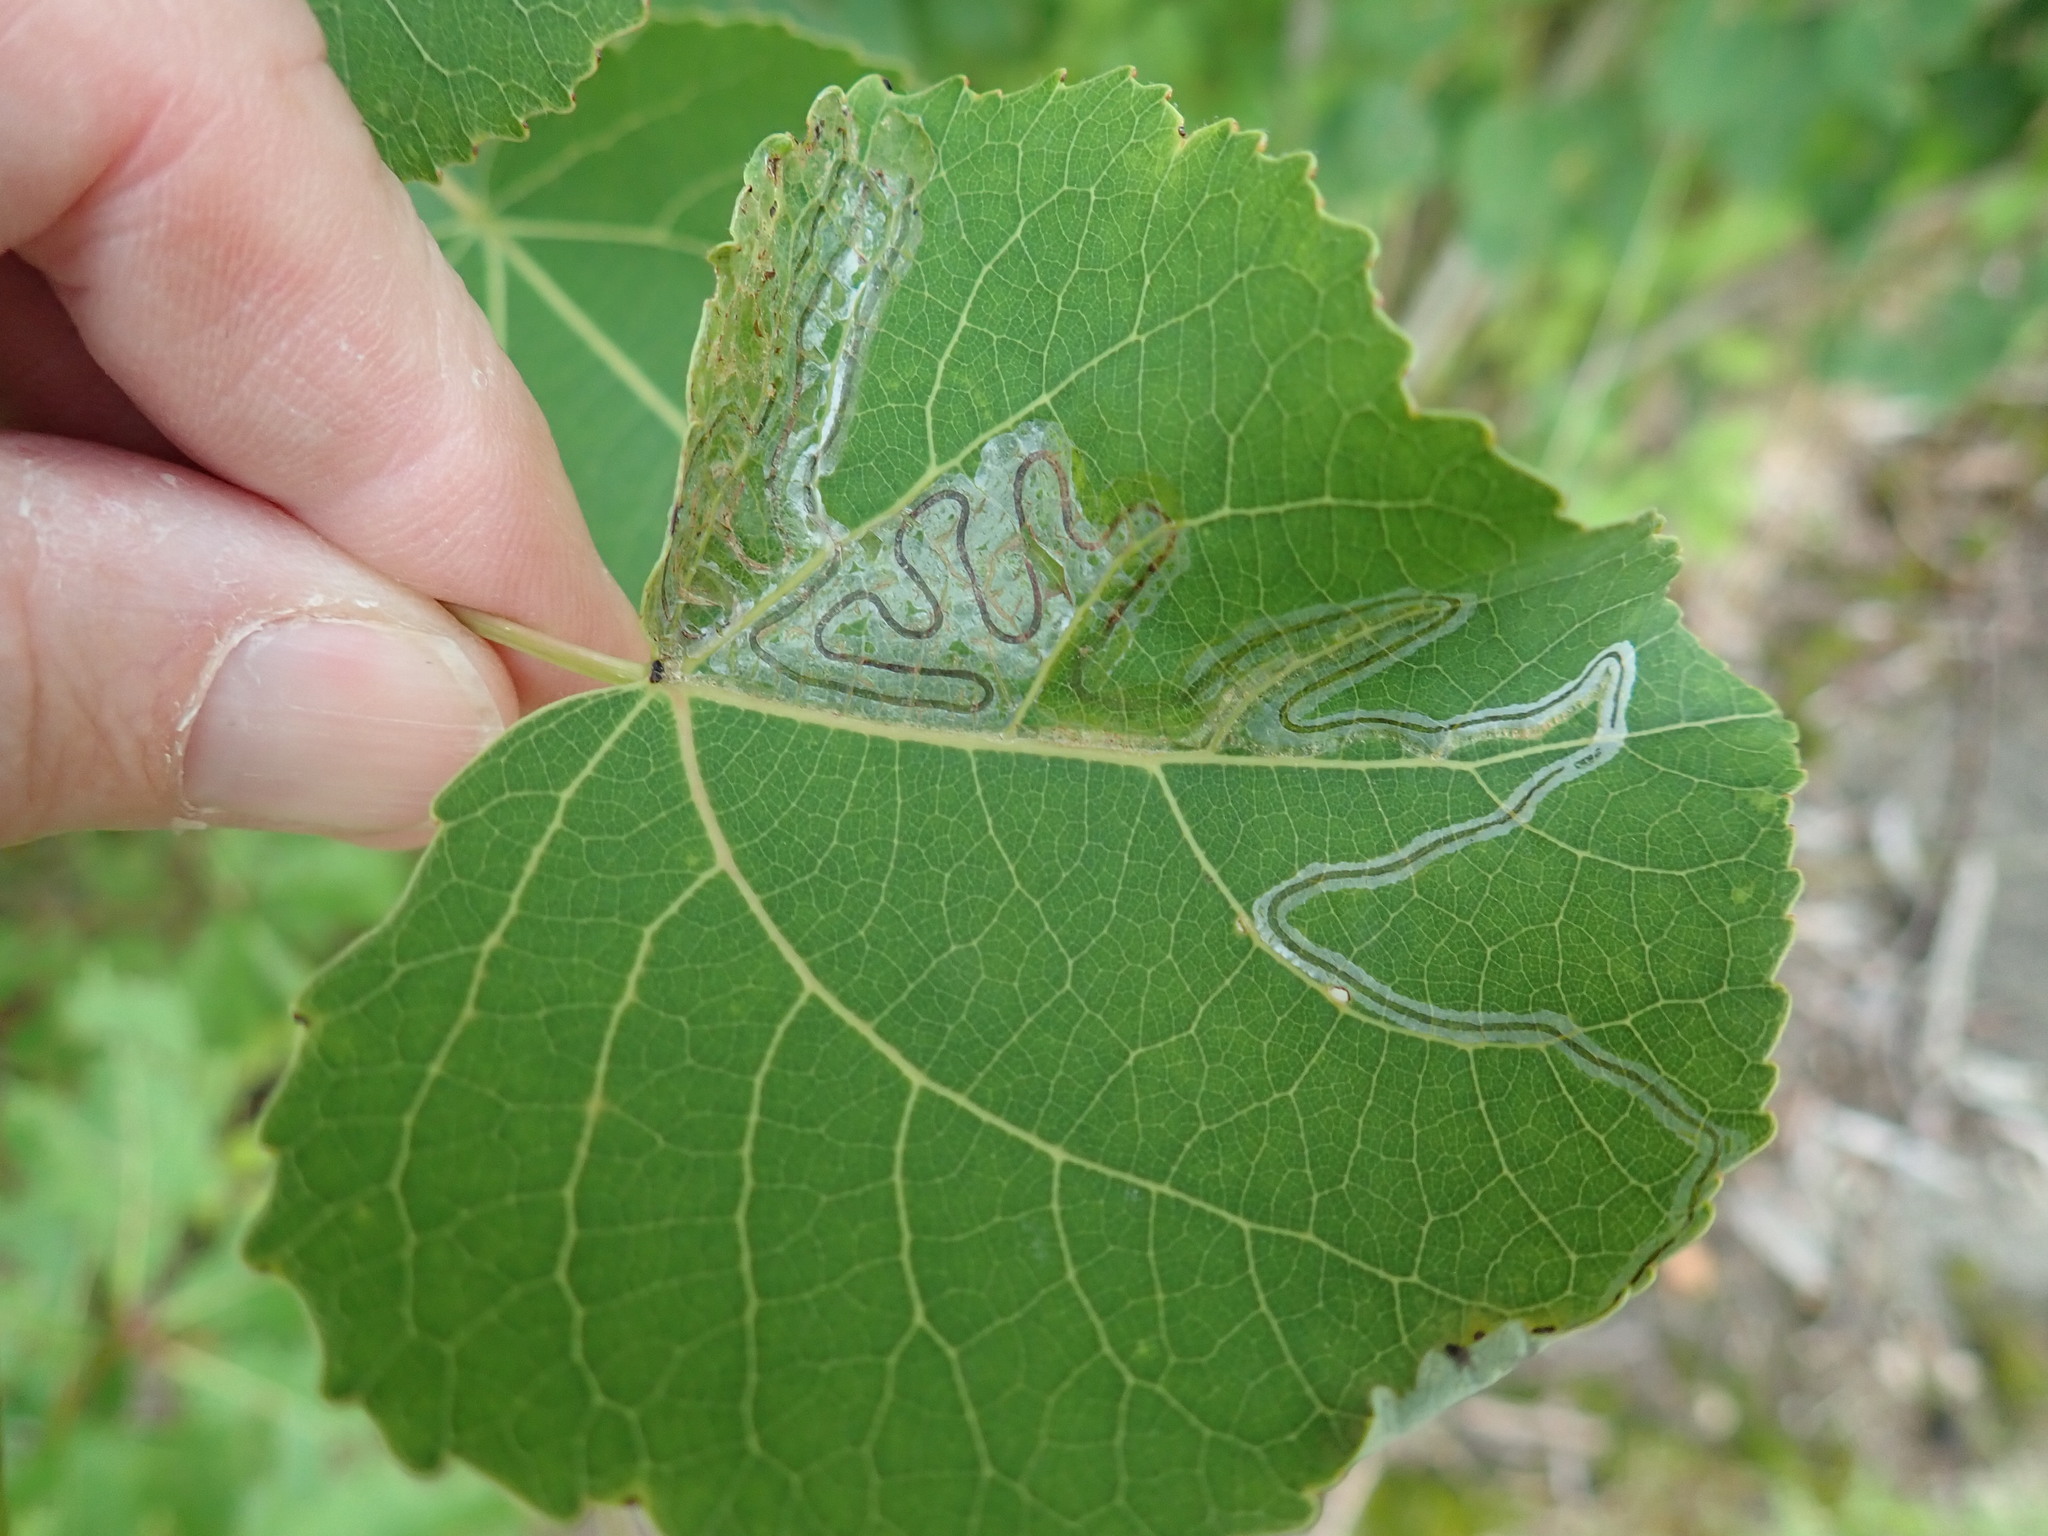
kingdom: Animalia
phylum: Arthropoda
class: Insecta
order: Lepidoptera
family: Gracillariidae
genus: Phyllocnistis
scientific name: Phyllocnistis populiella
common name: Aspen serpentine leafminer moth
